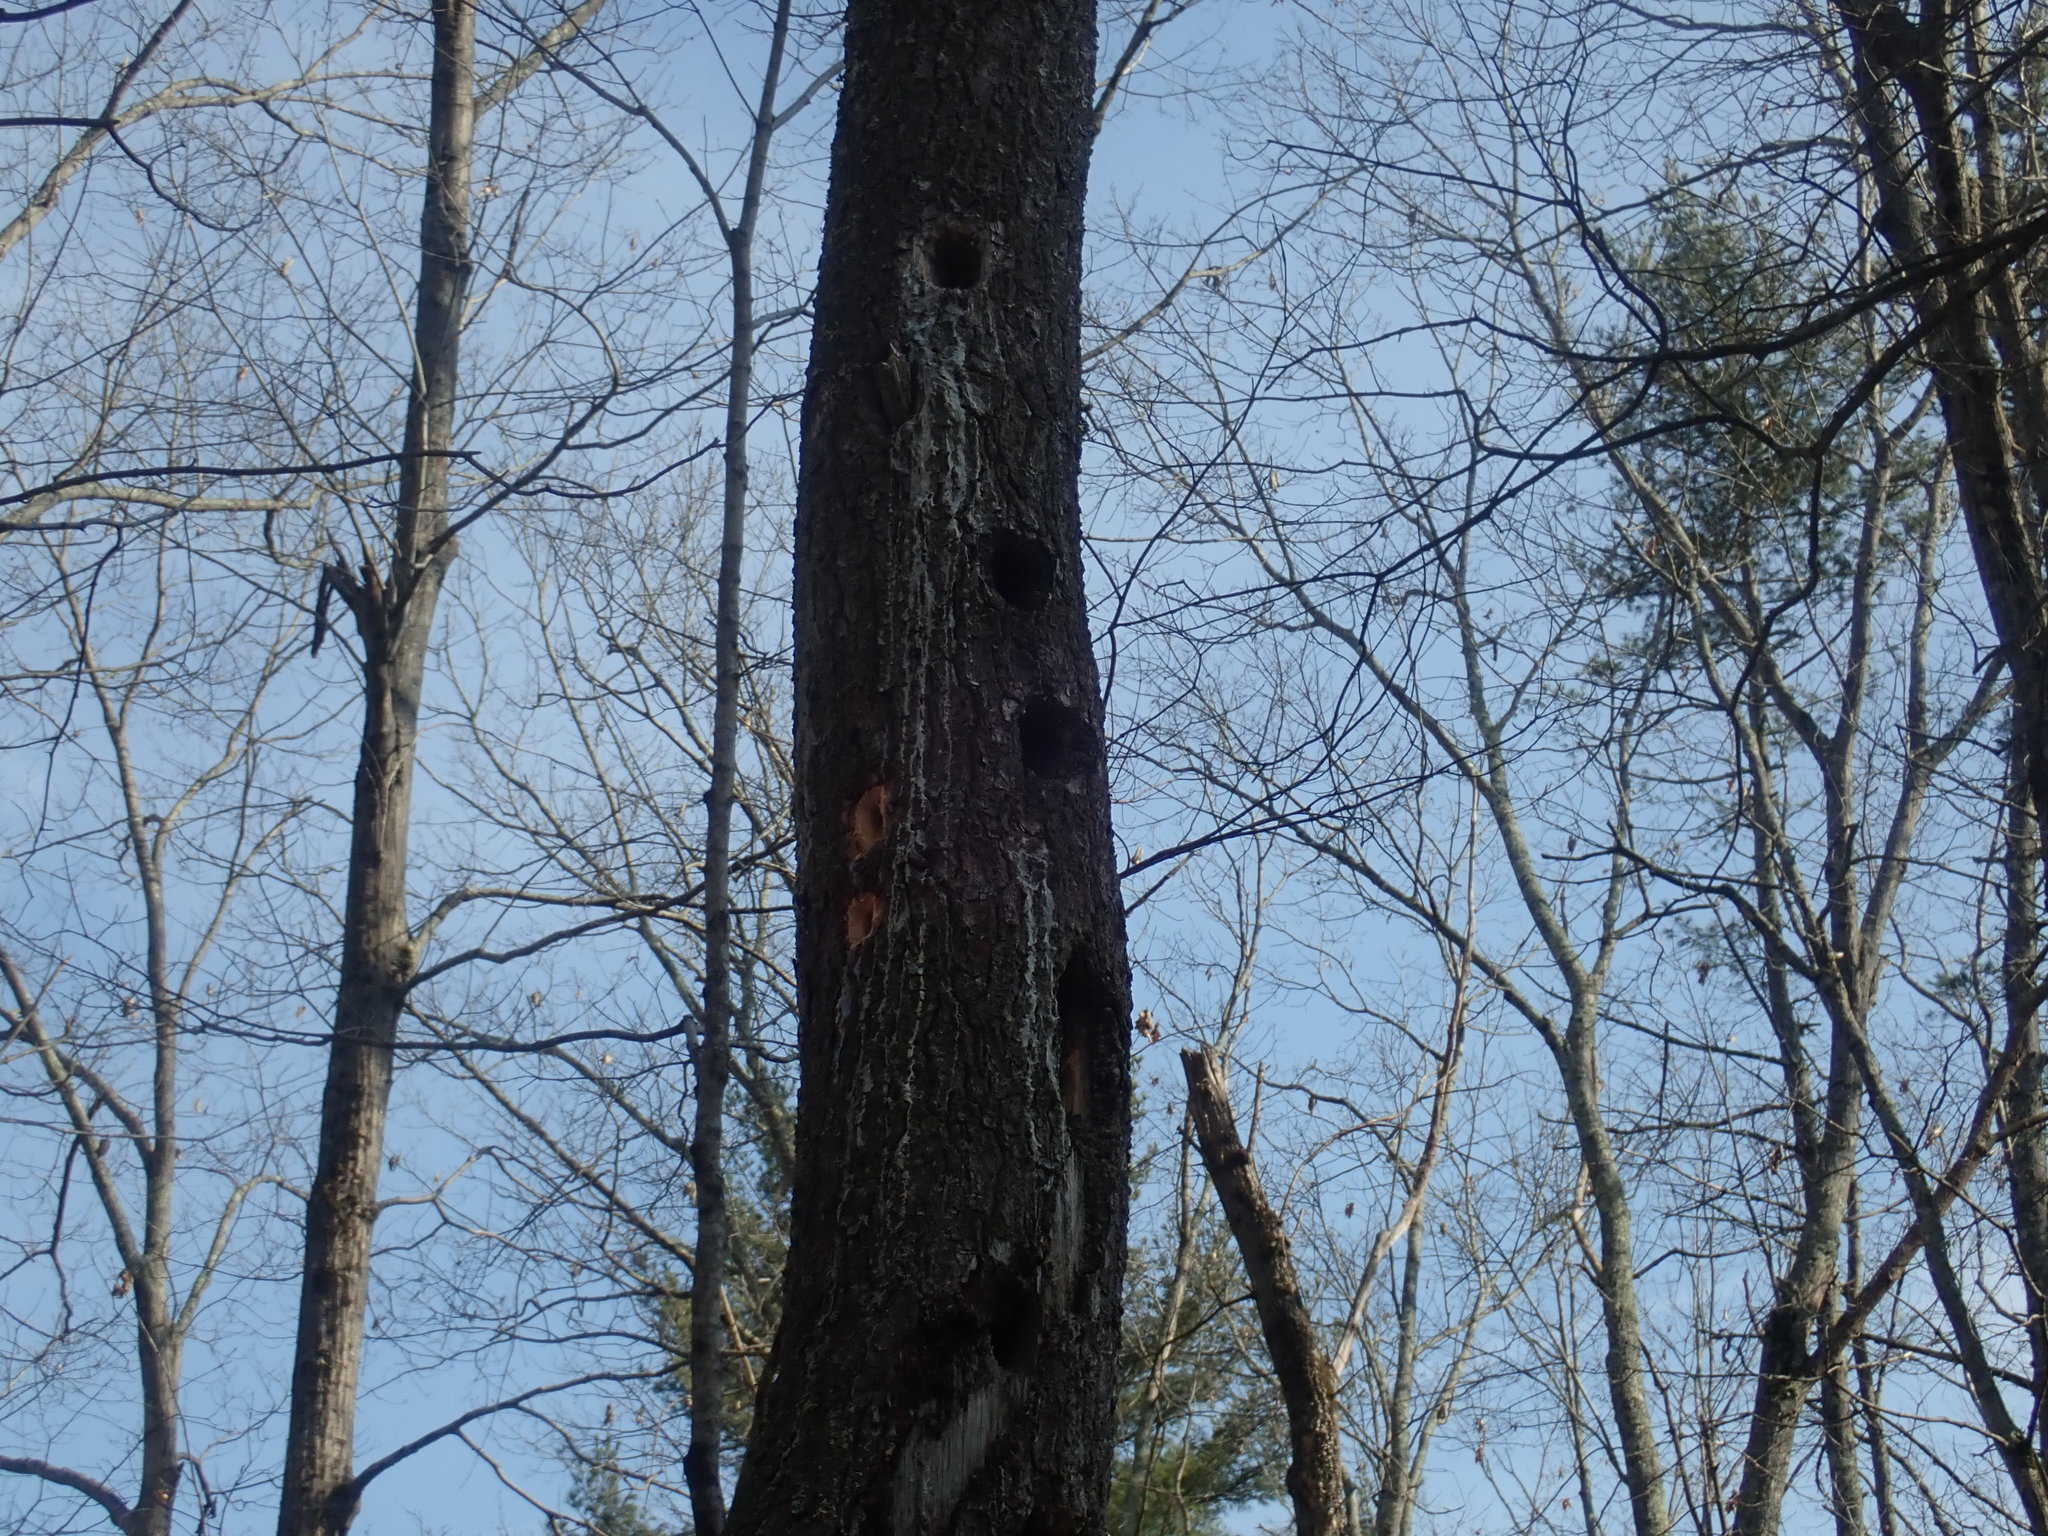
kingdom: Animalia
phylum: Chordata
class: Aves
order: Piciformes
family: Picidae
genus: Dryocopus
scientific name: Dryocopus pileatus
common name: Pileated woodpecker
